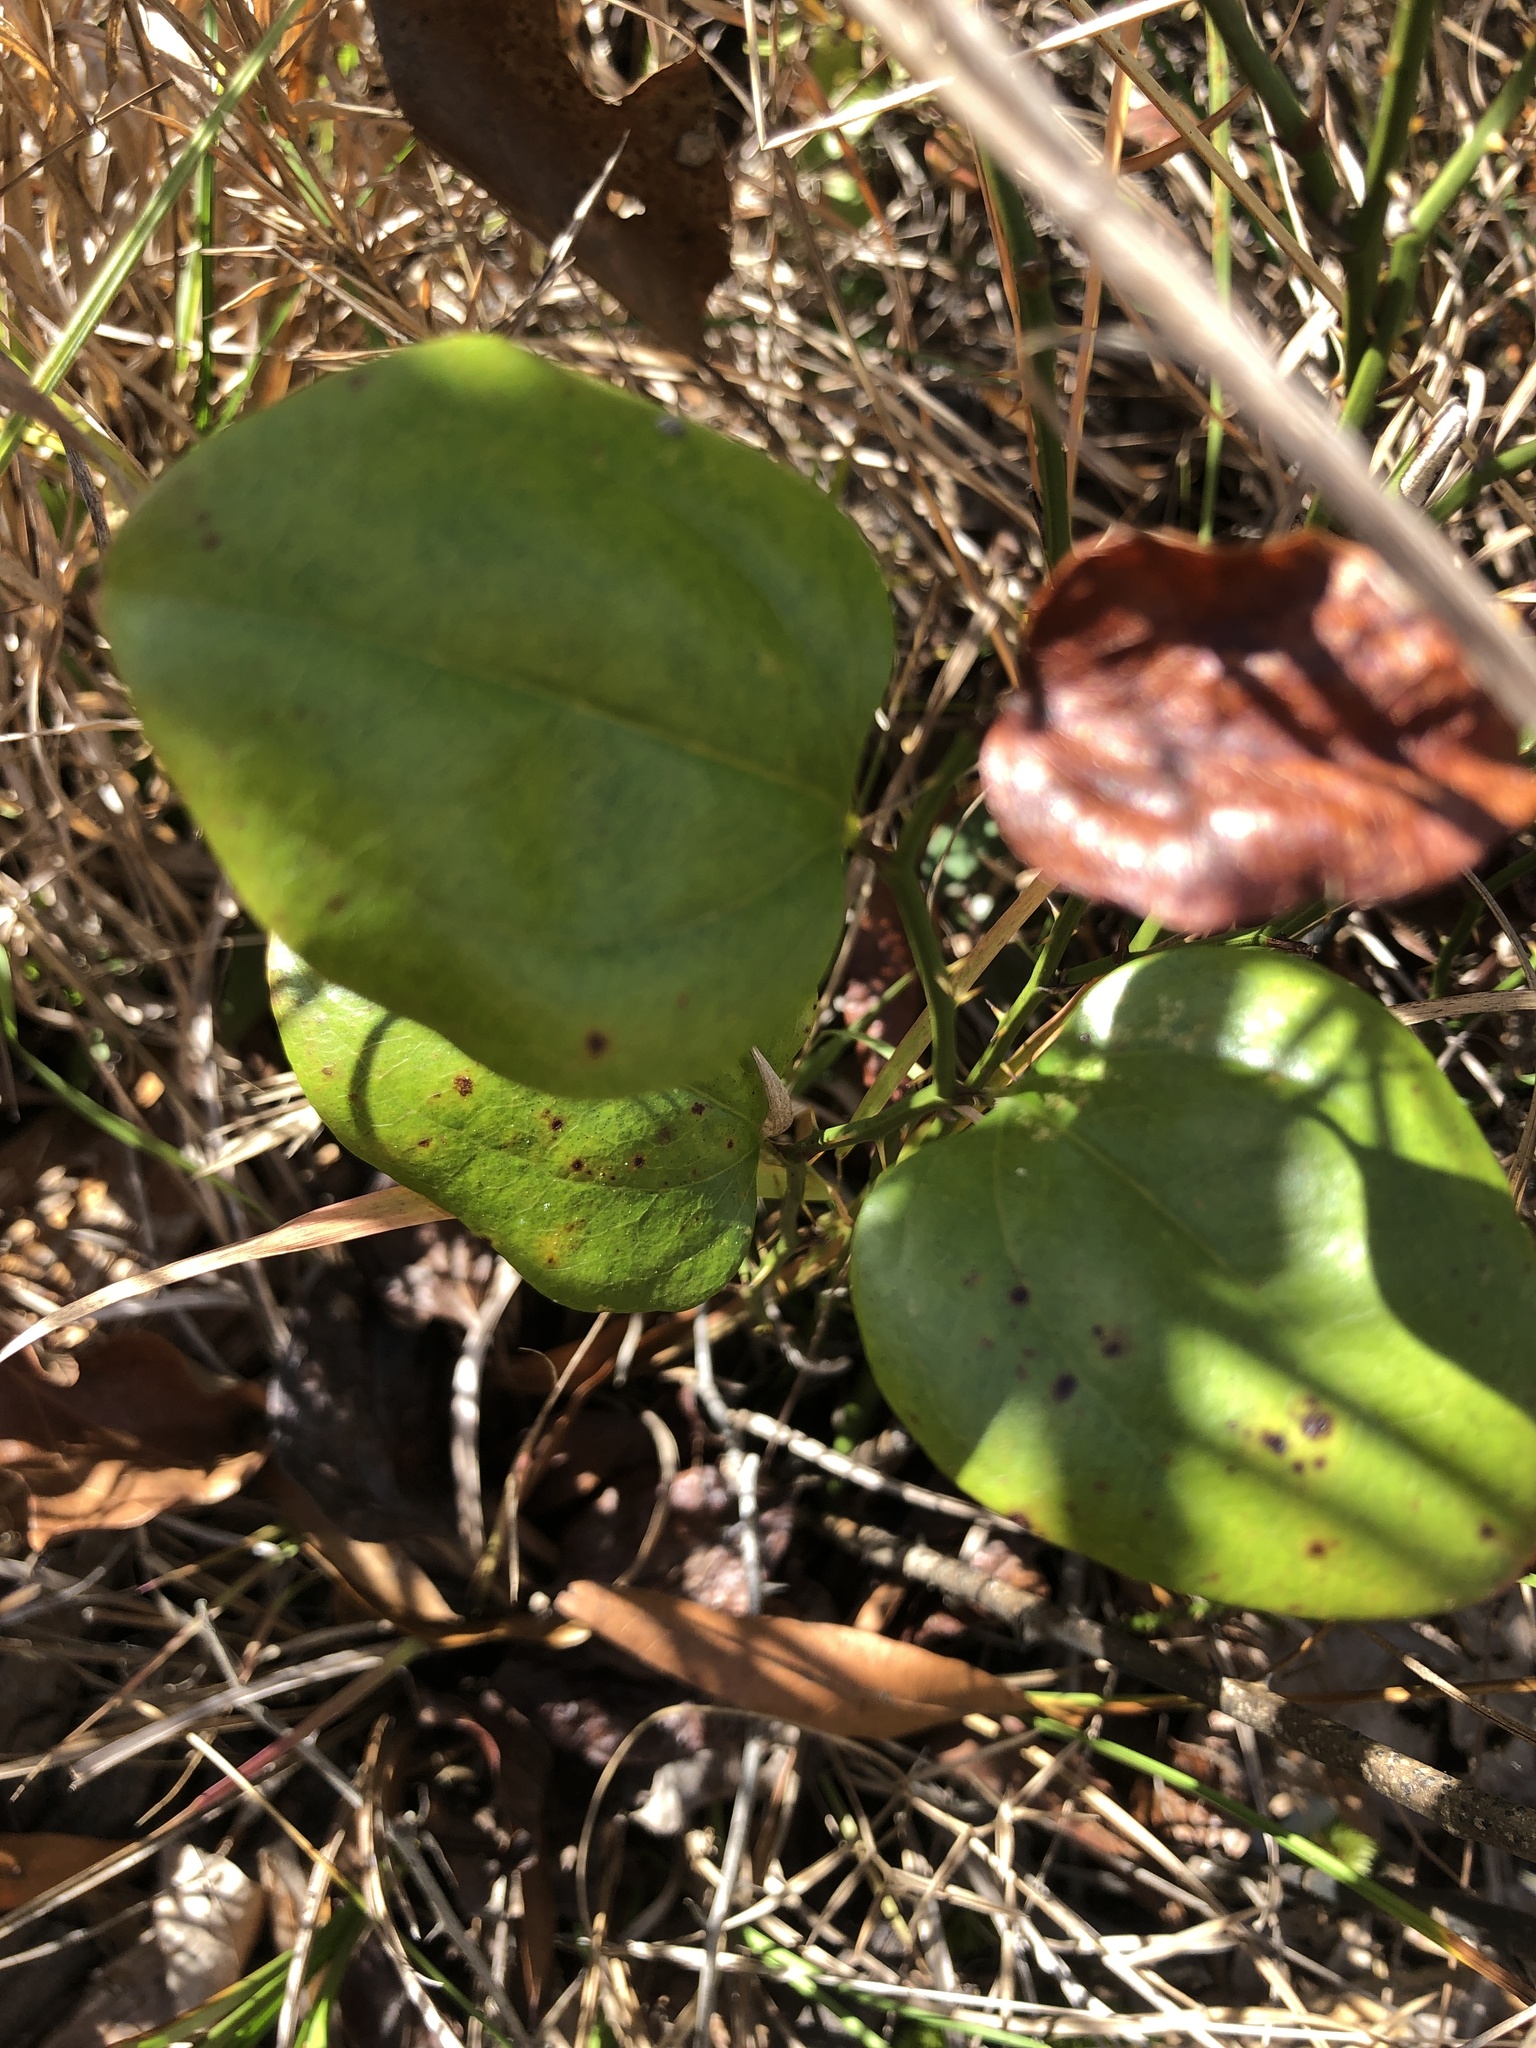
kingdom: Plantae
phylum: Tracheophyta
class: Liliopsida
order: Liliales
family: Smilacaceae
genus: Smilax
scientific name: Smilax rotundifolia
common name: Bullbriar
